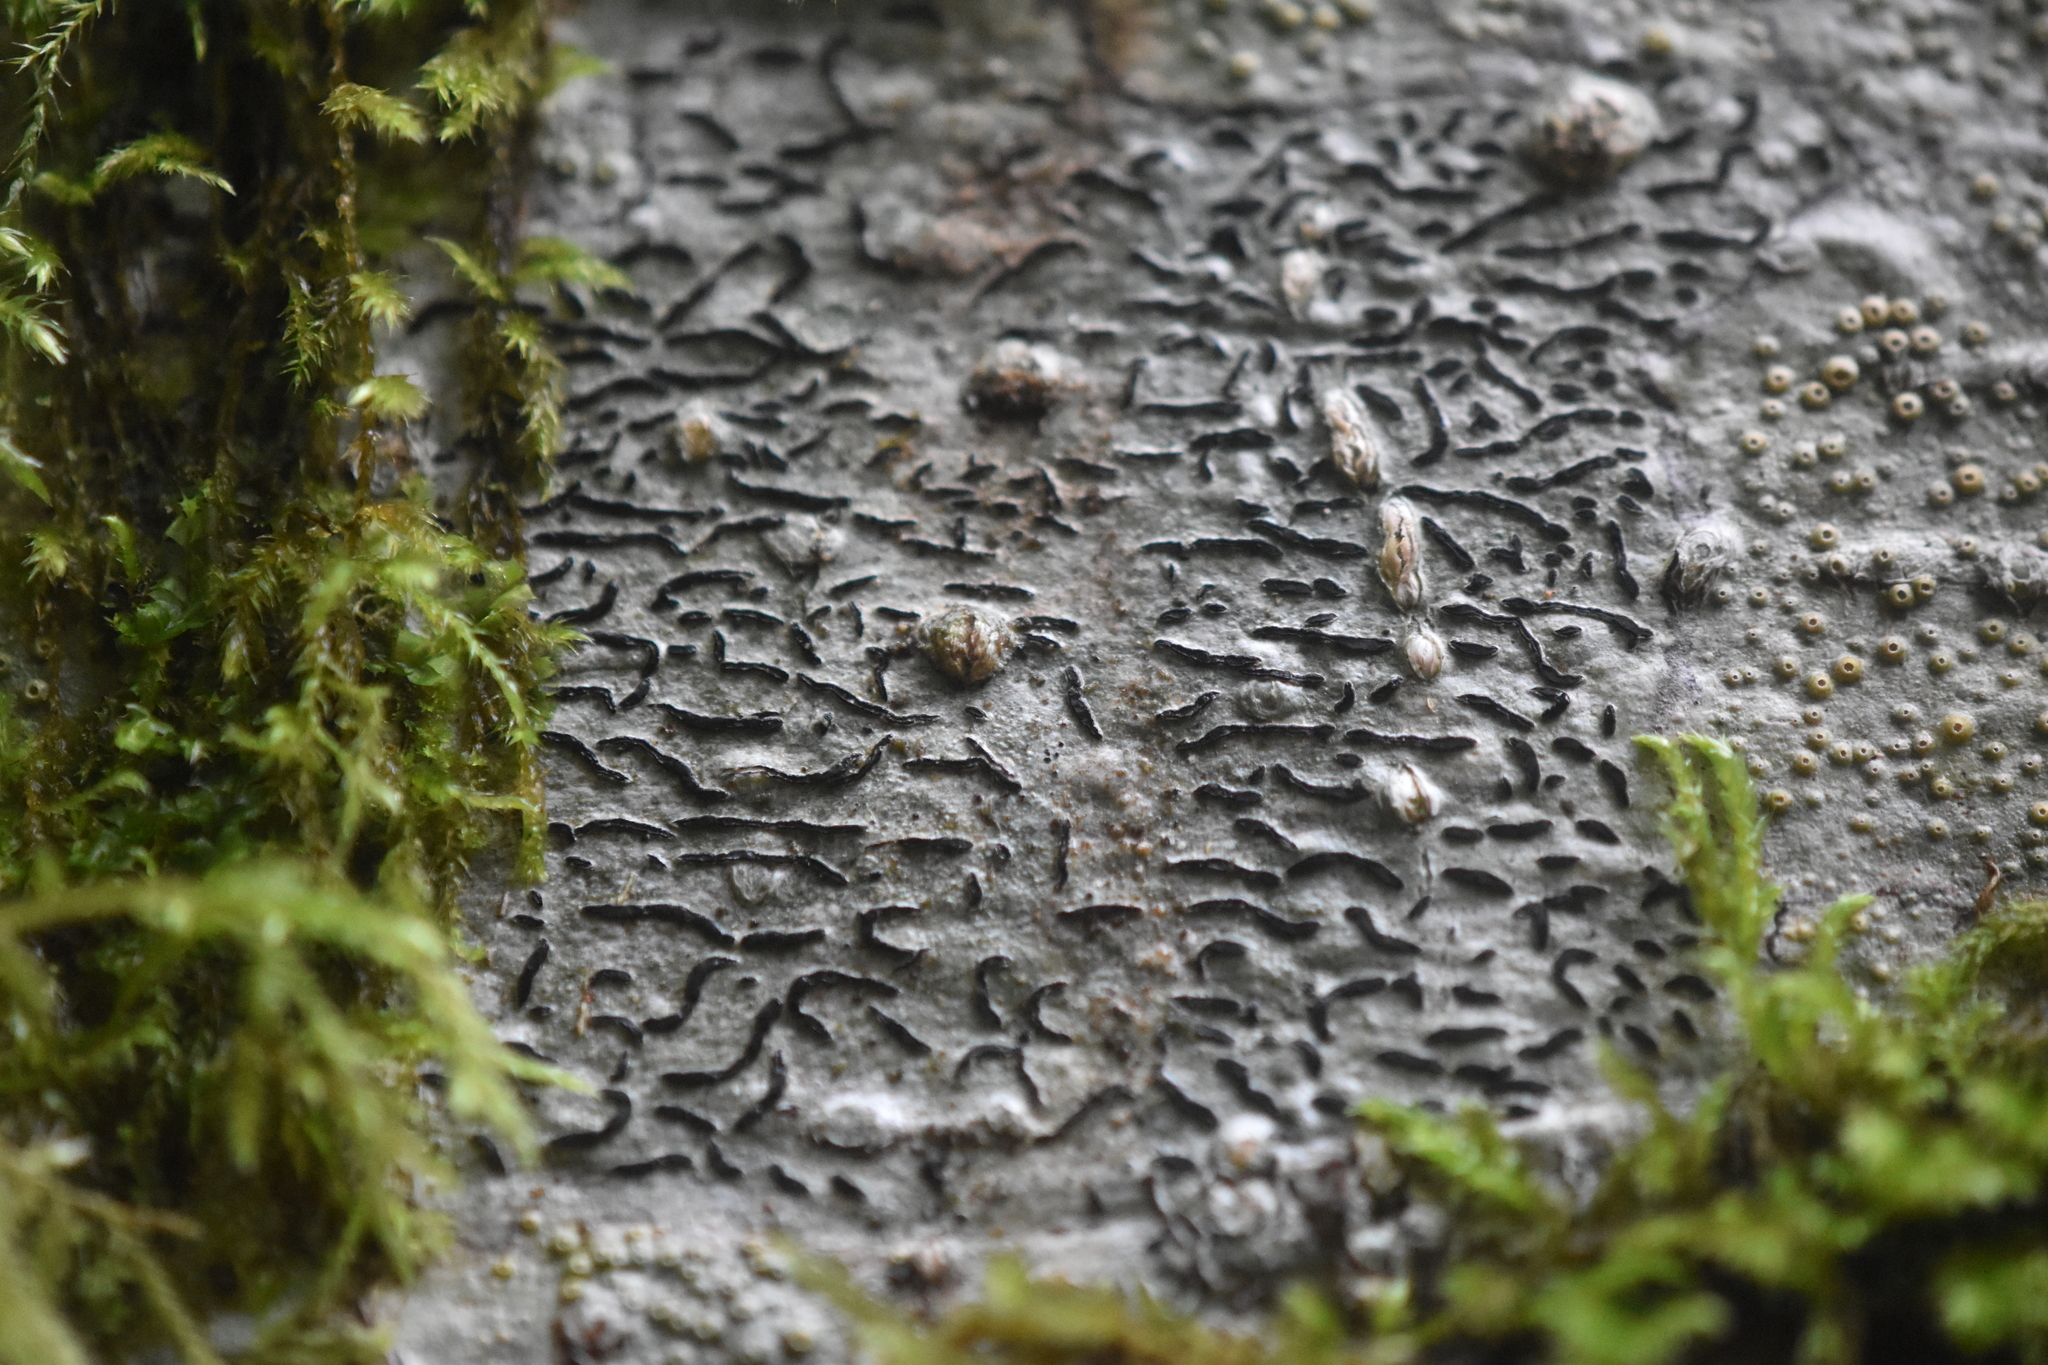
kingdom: Fungi
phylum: Ascomycota
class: Lecanoromycetes
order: Ostropales
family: Graphidaceae
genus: Graphis
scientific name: Graphis scripta
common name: Script lichen
